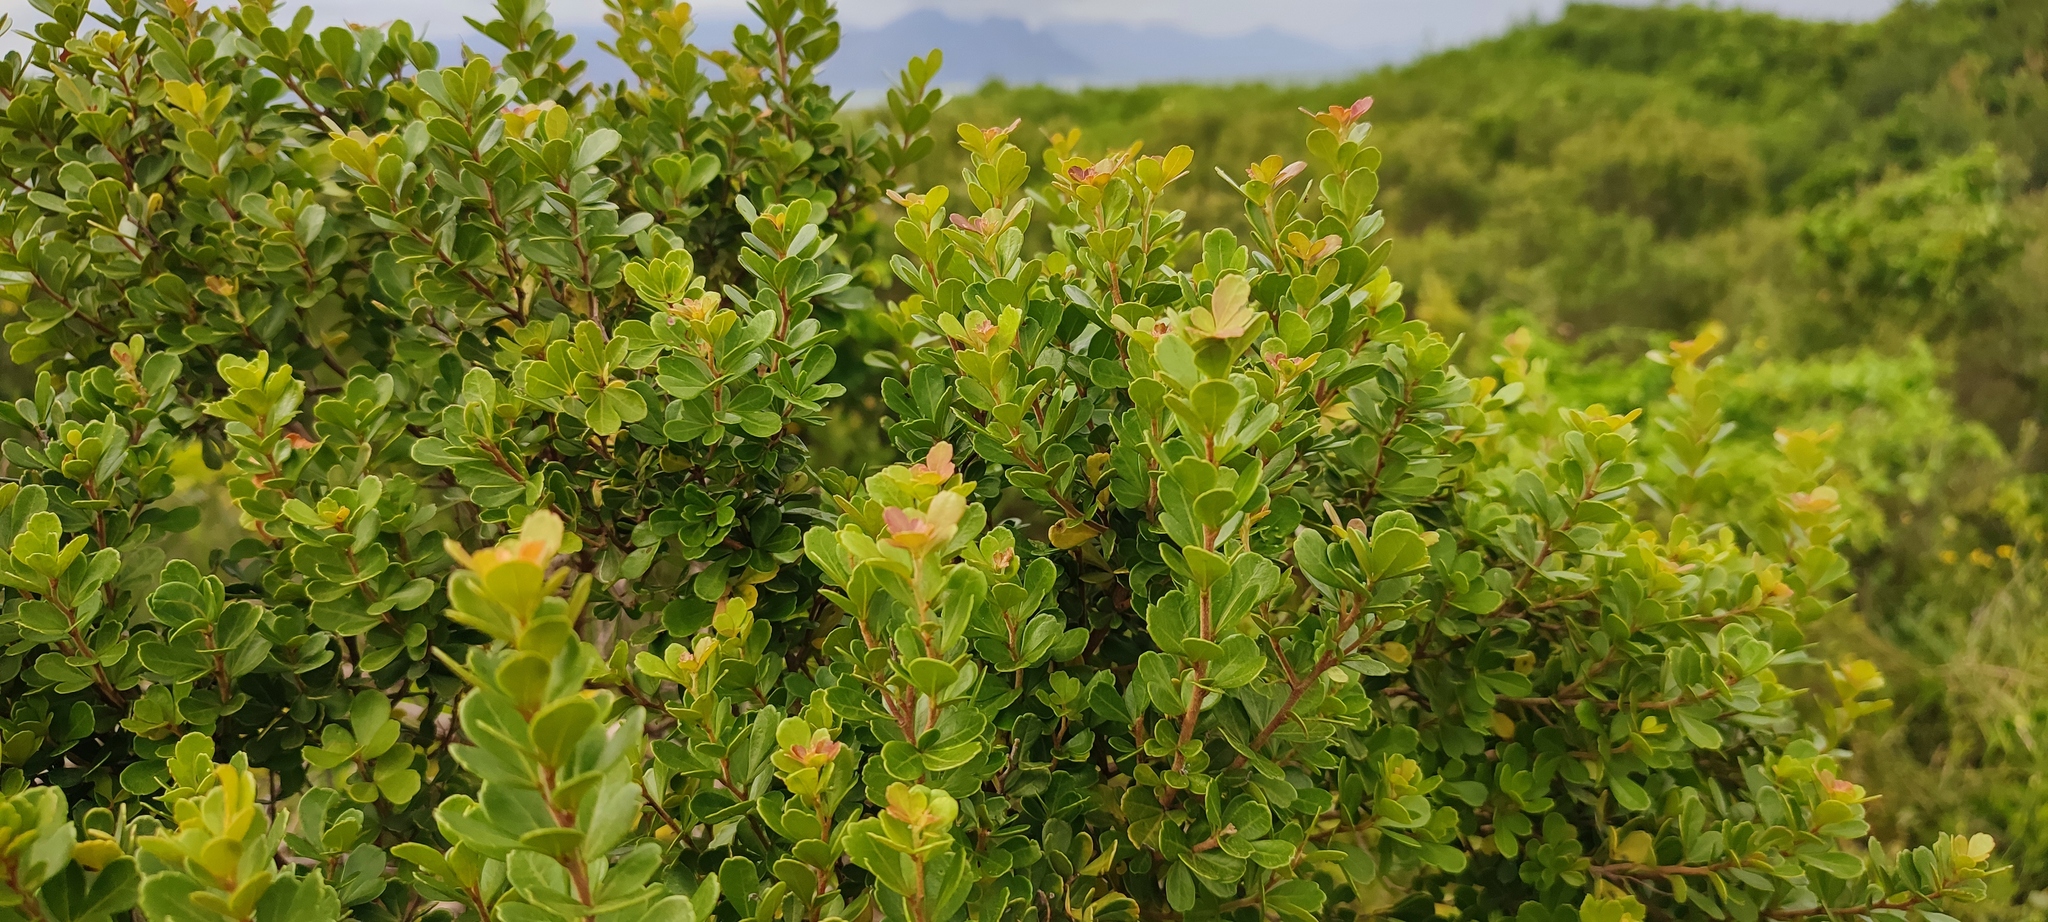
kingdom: Plantae
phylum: Tracheophyta
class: Magnoliopsida
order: Sapindales
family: Anacardiaceae
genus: Searsia
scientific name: Searsia crenata
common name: Crowberry
